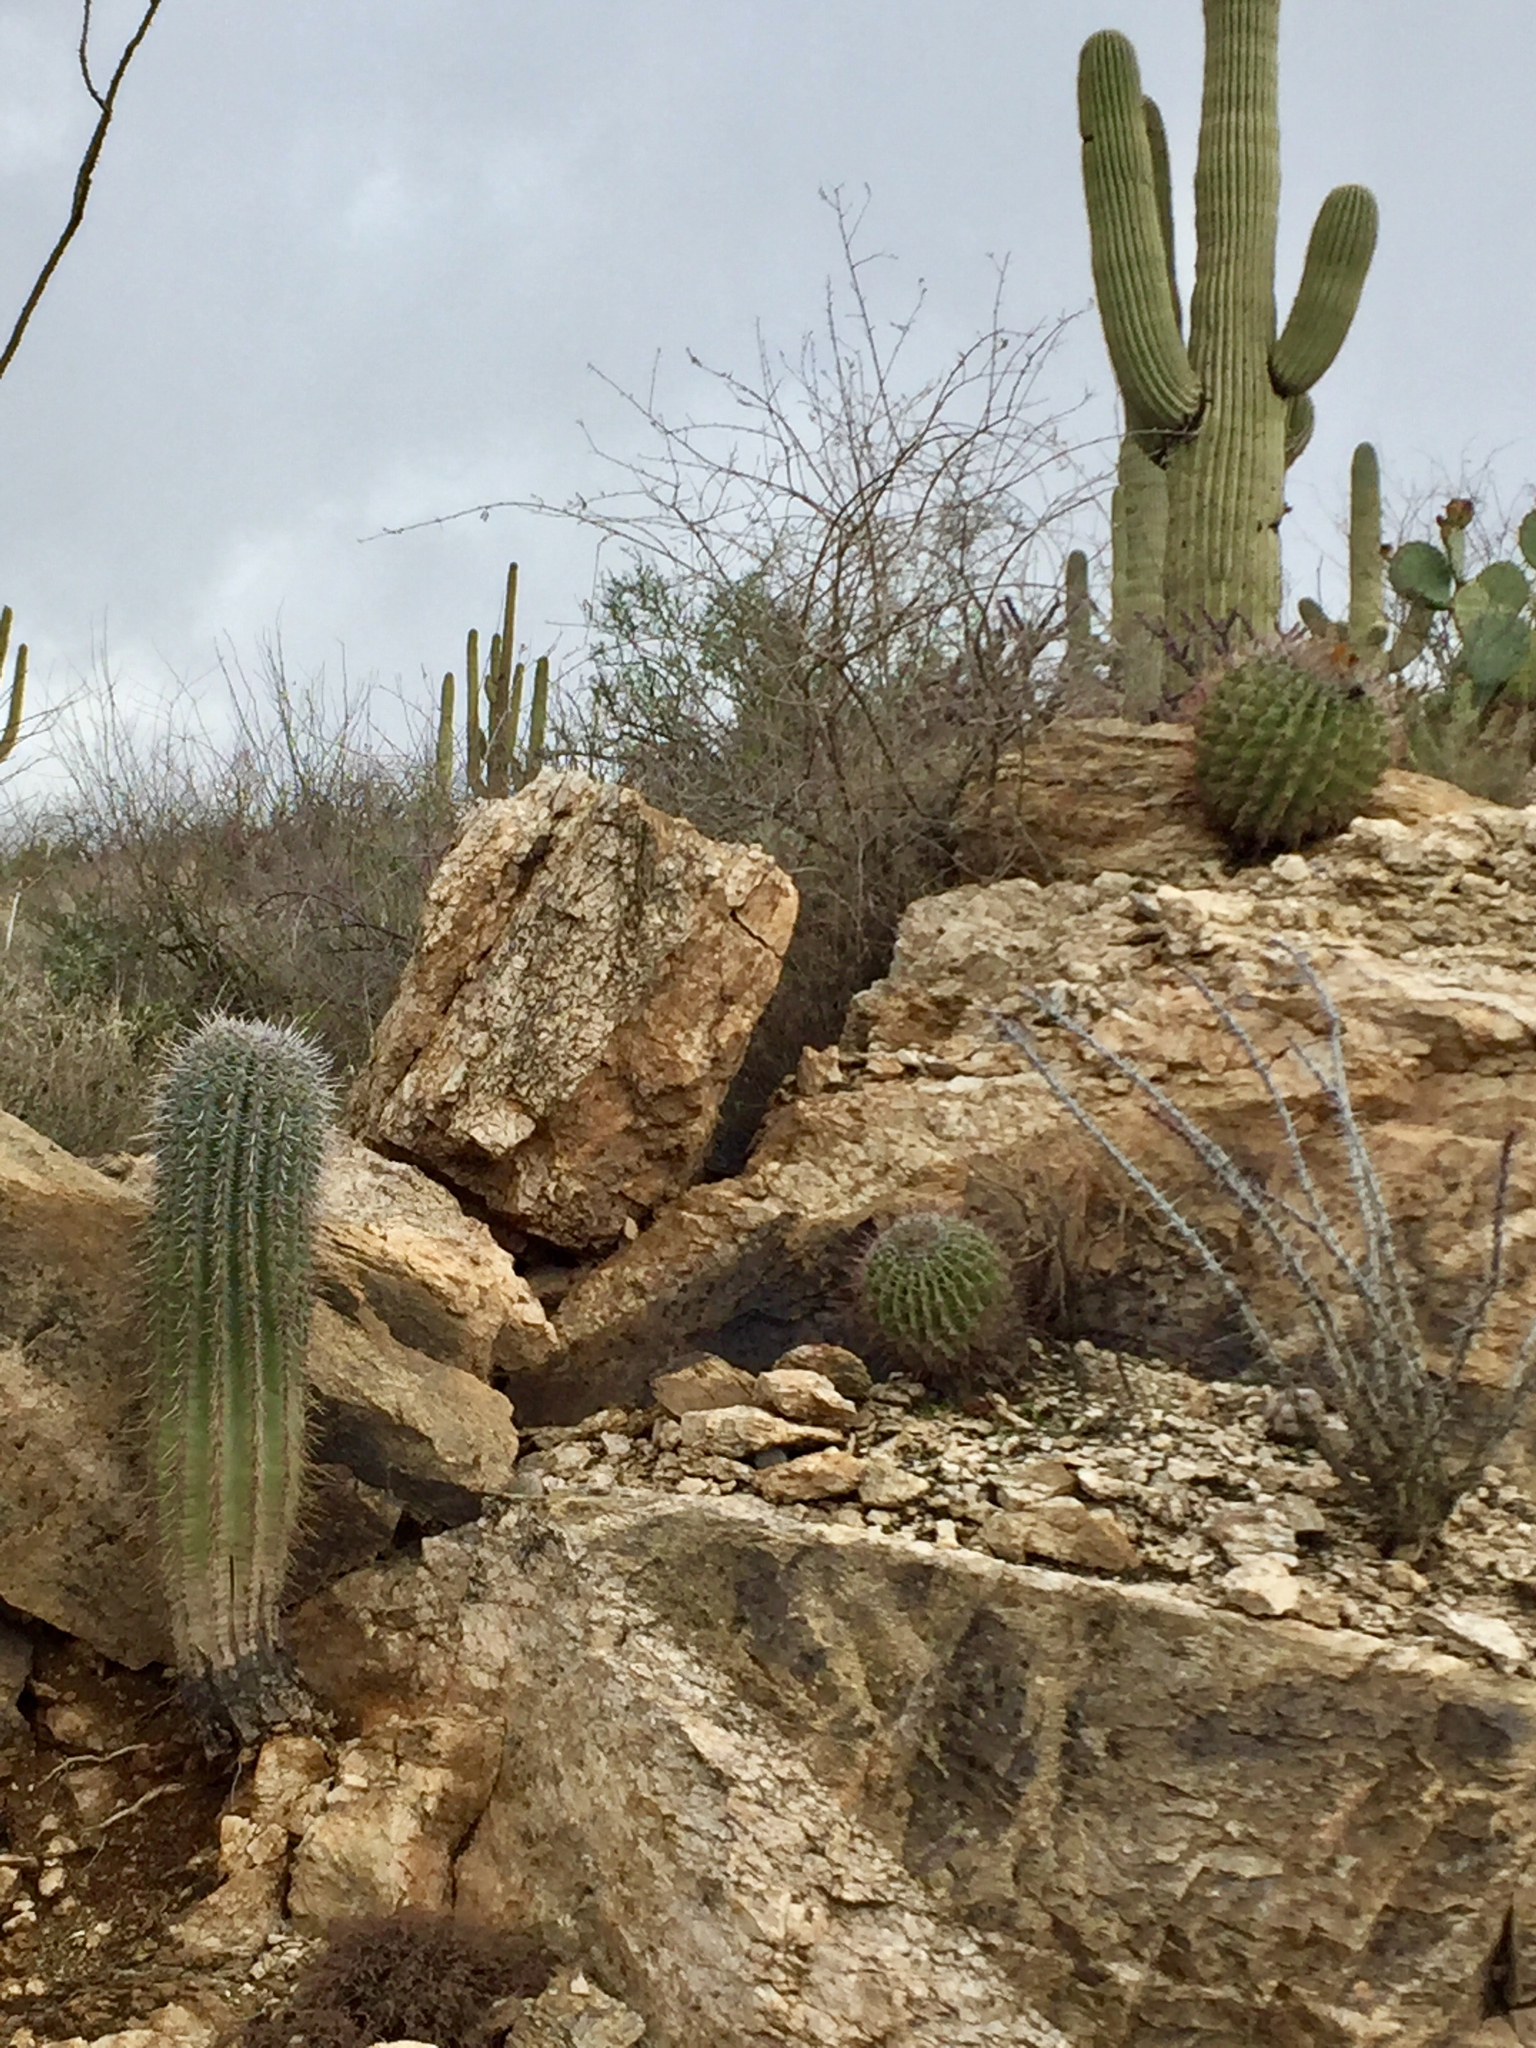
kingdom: Plantae
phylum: Tracheophyta
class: Magnoliopsida
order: Caryophyllales
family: Cactaceae
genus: Ferocactus
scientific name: Ferocactus wislizeni
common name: Candy barrel cactus
